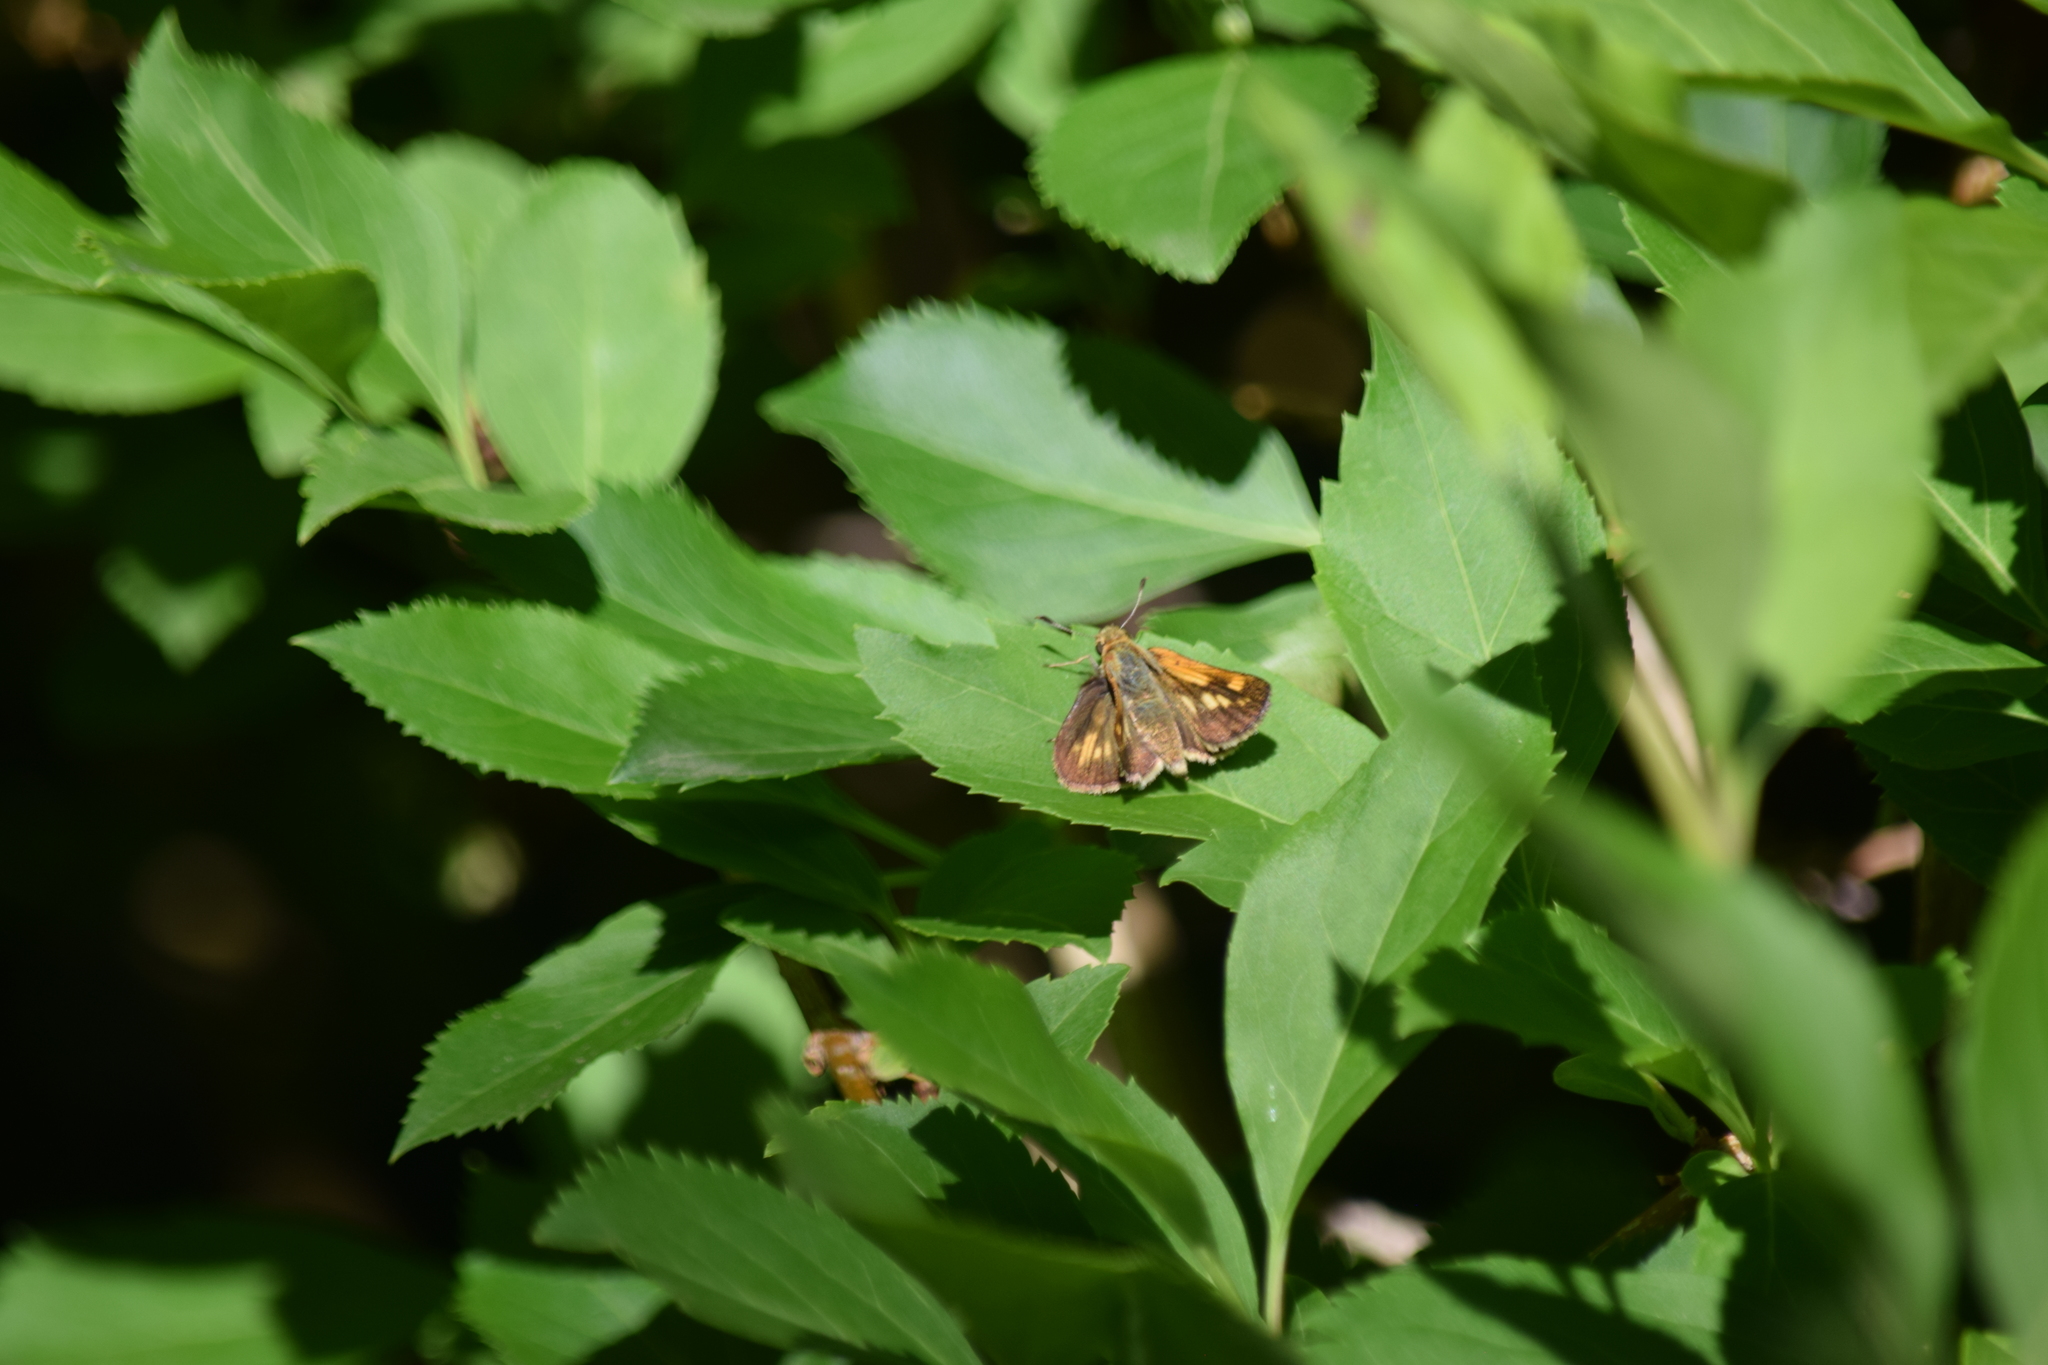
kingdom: Animalia
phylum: Arthropoda
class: Insecta
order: Lepidoptera
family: Hesperiidae
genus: Polites
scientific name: Polites coras
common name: Peck's skipper
